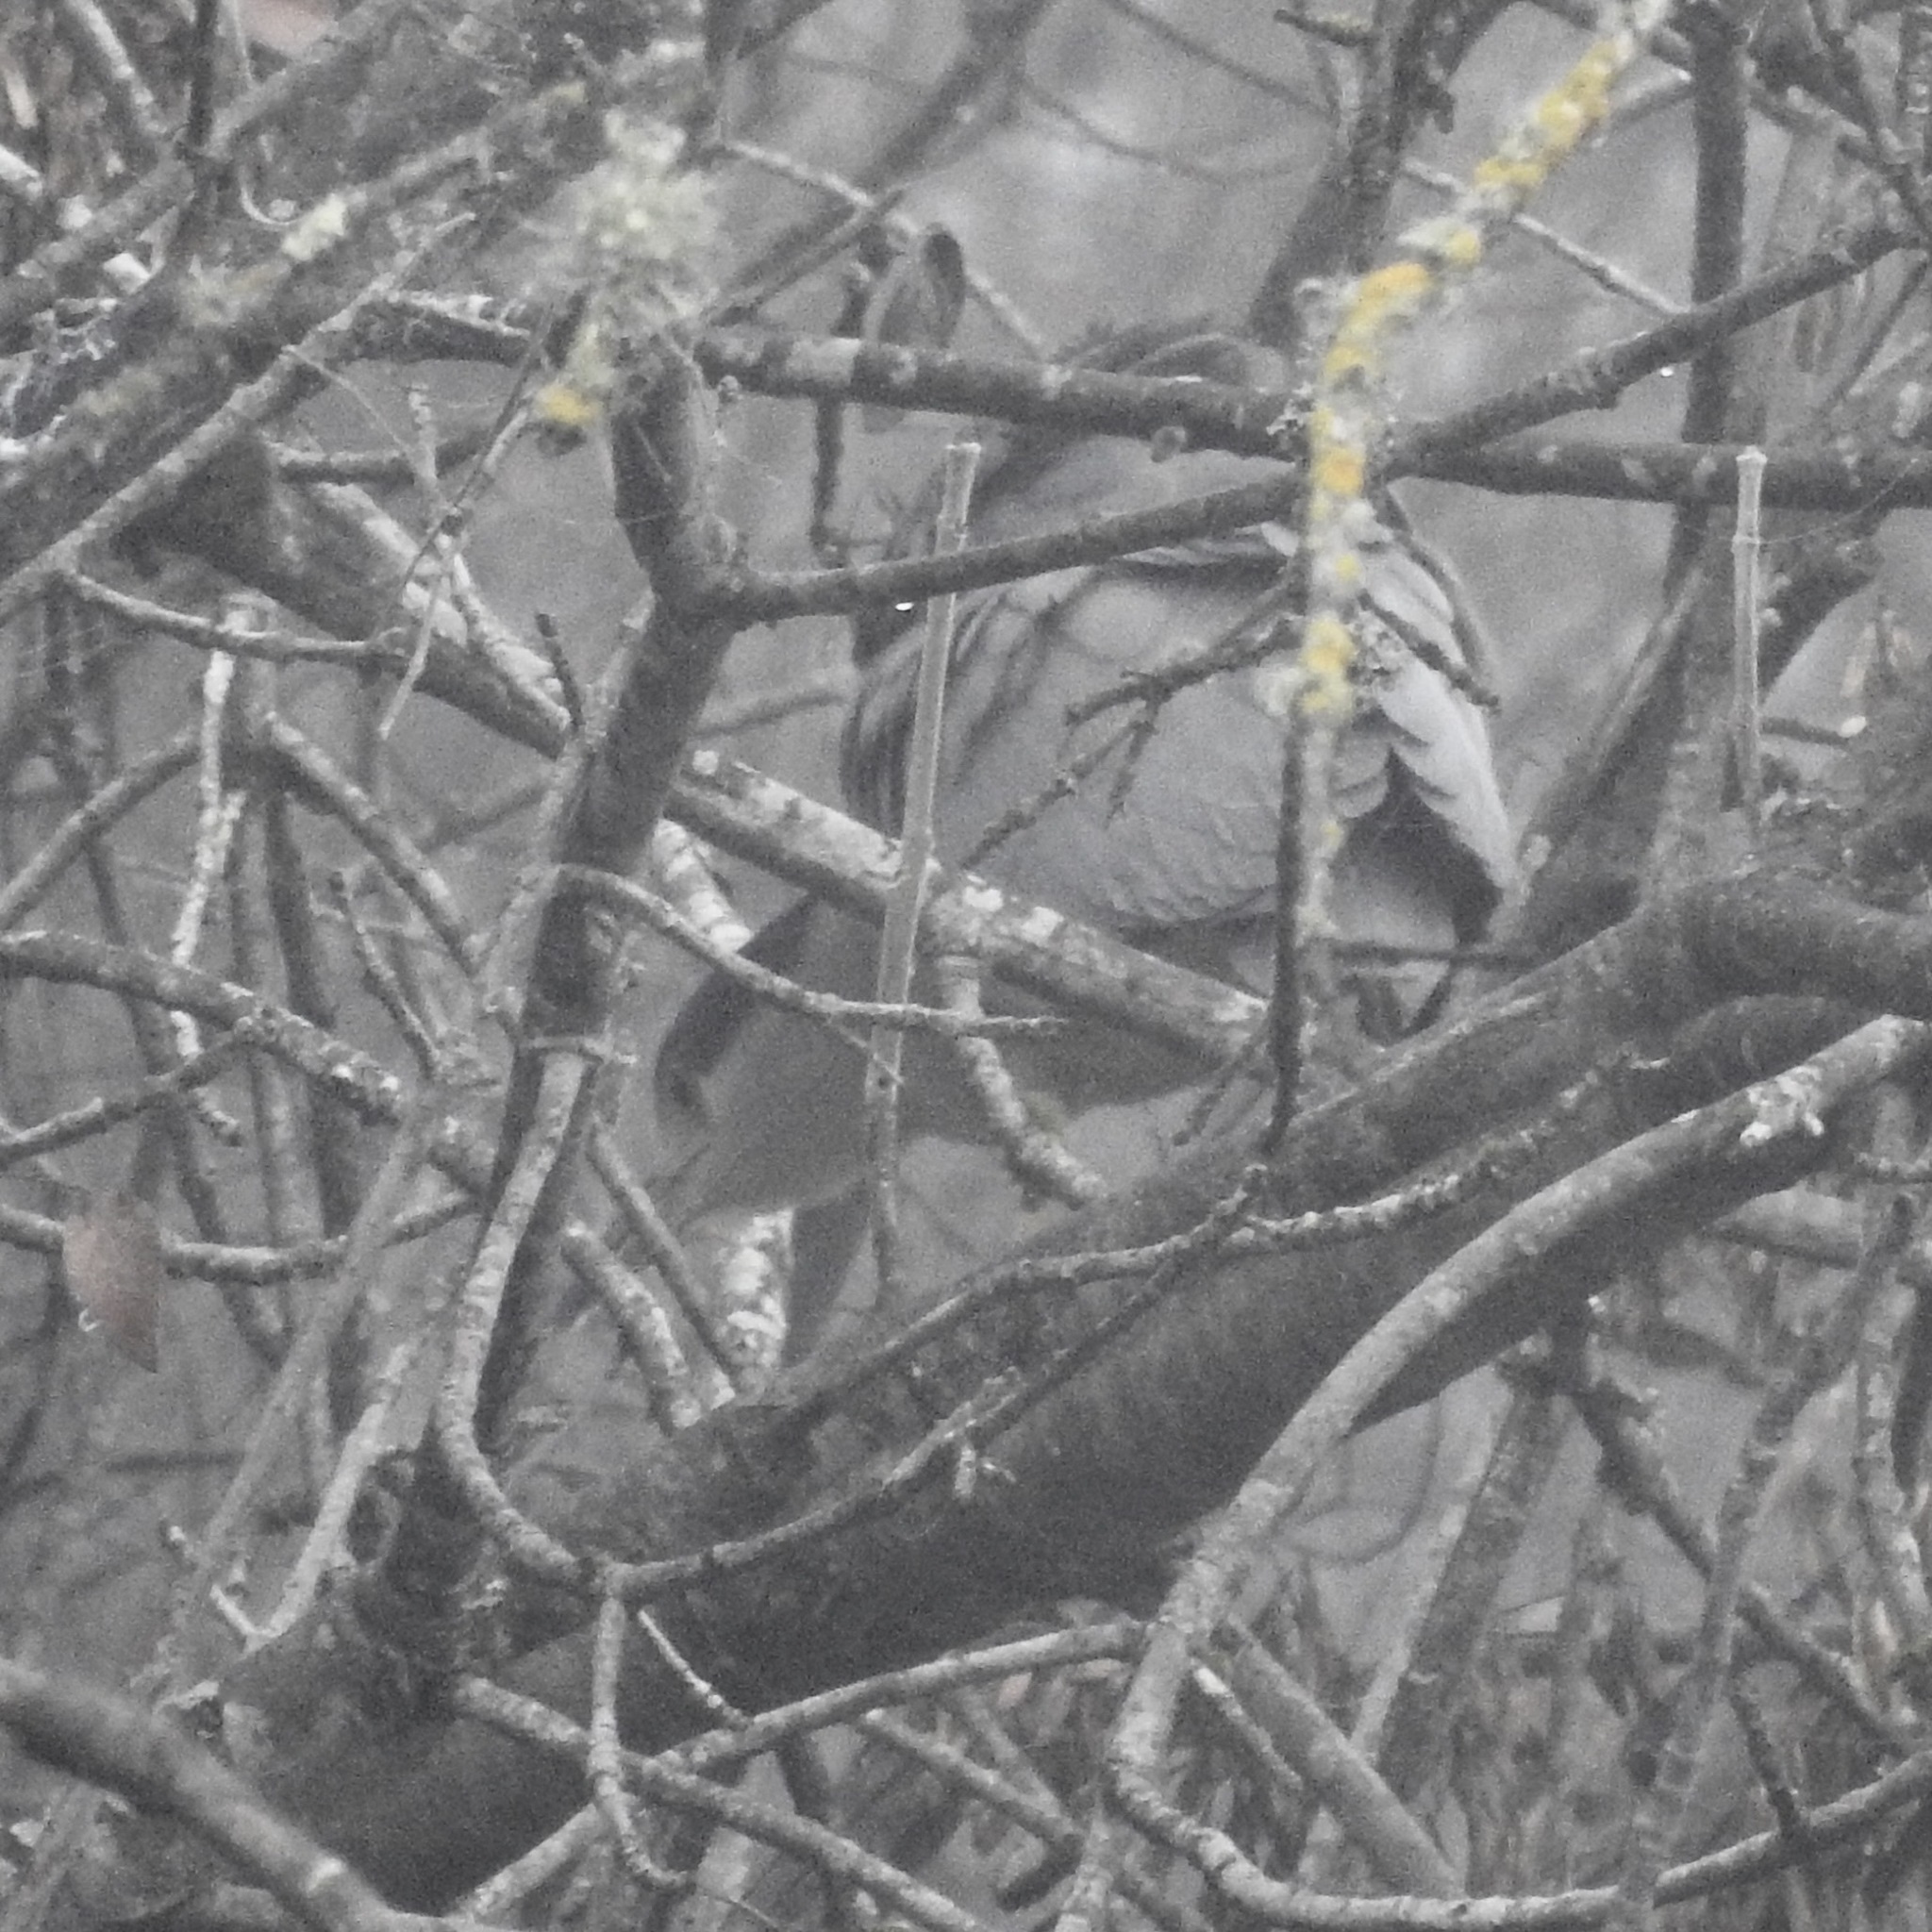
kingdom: Animalia
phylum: Chordata
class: Aves
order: Pelecaniformes
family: Ardeidae
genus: Nycticorax
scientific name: Nycticorax nycticorax
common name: Black-crowned night heron
